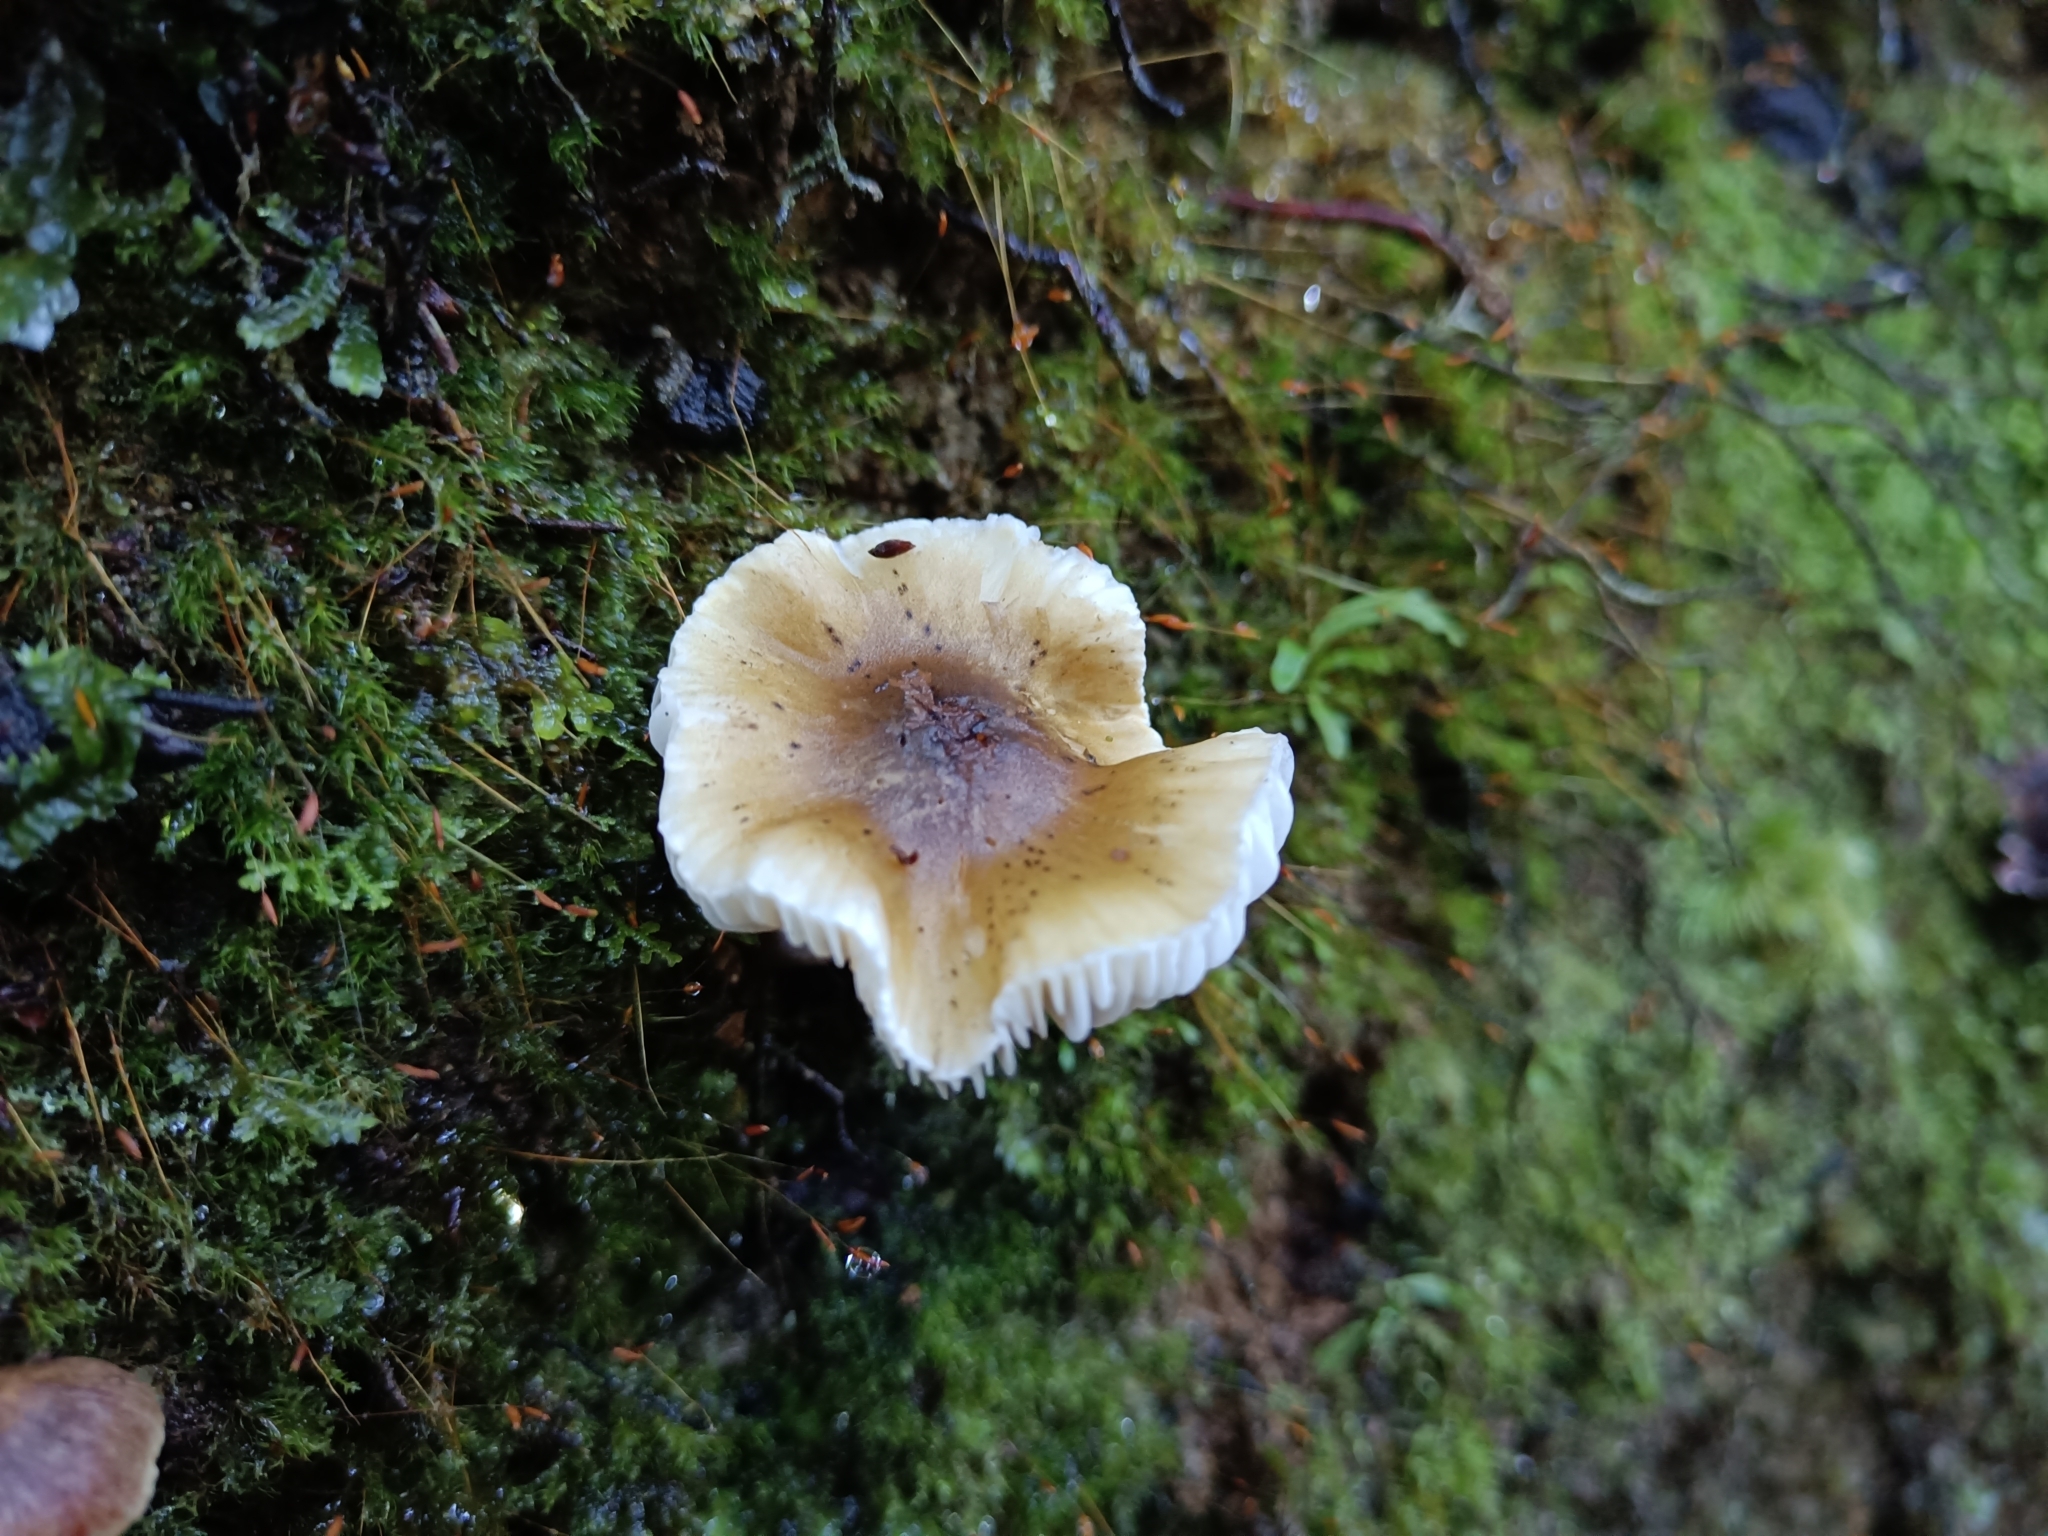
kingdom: Fungi
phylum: Basidiomycota
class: Agaricomycetes
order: Agaricales
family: Tricholomataceae
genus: Tricholoma
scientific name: Tricholoma viridiolivaceum
